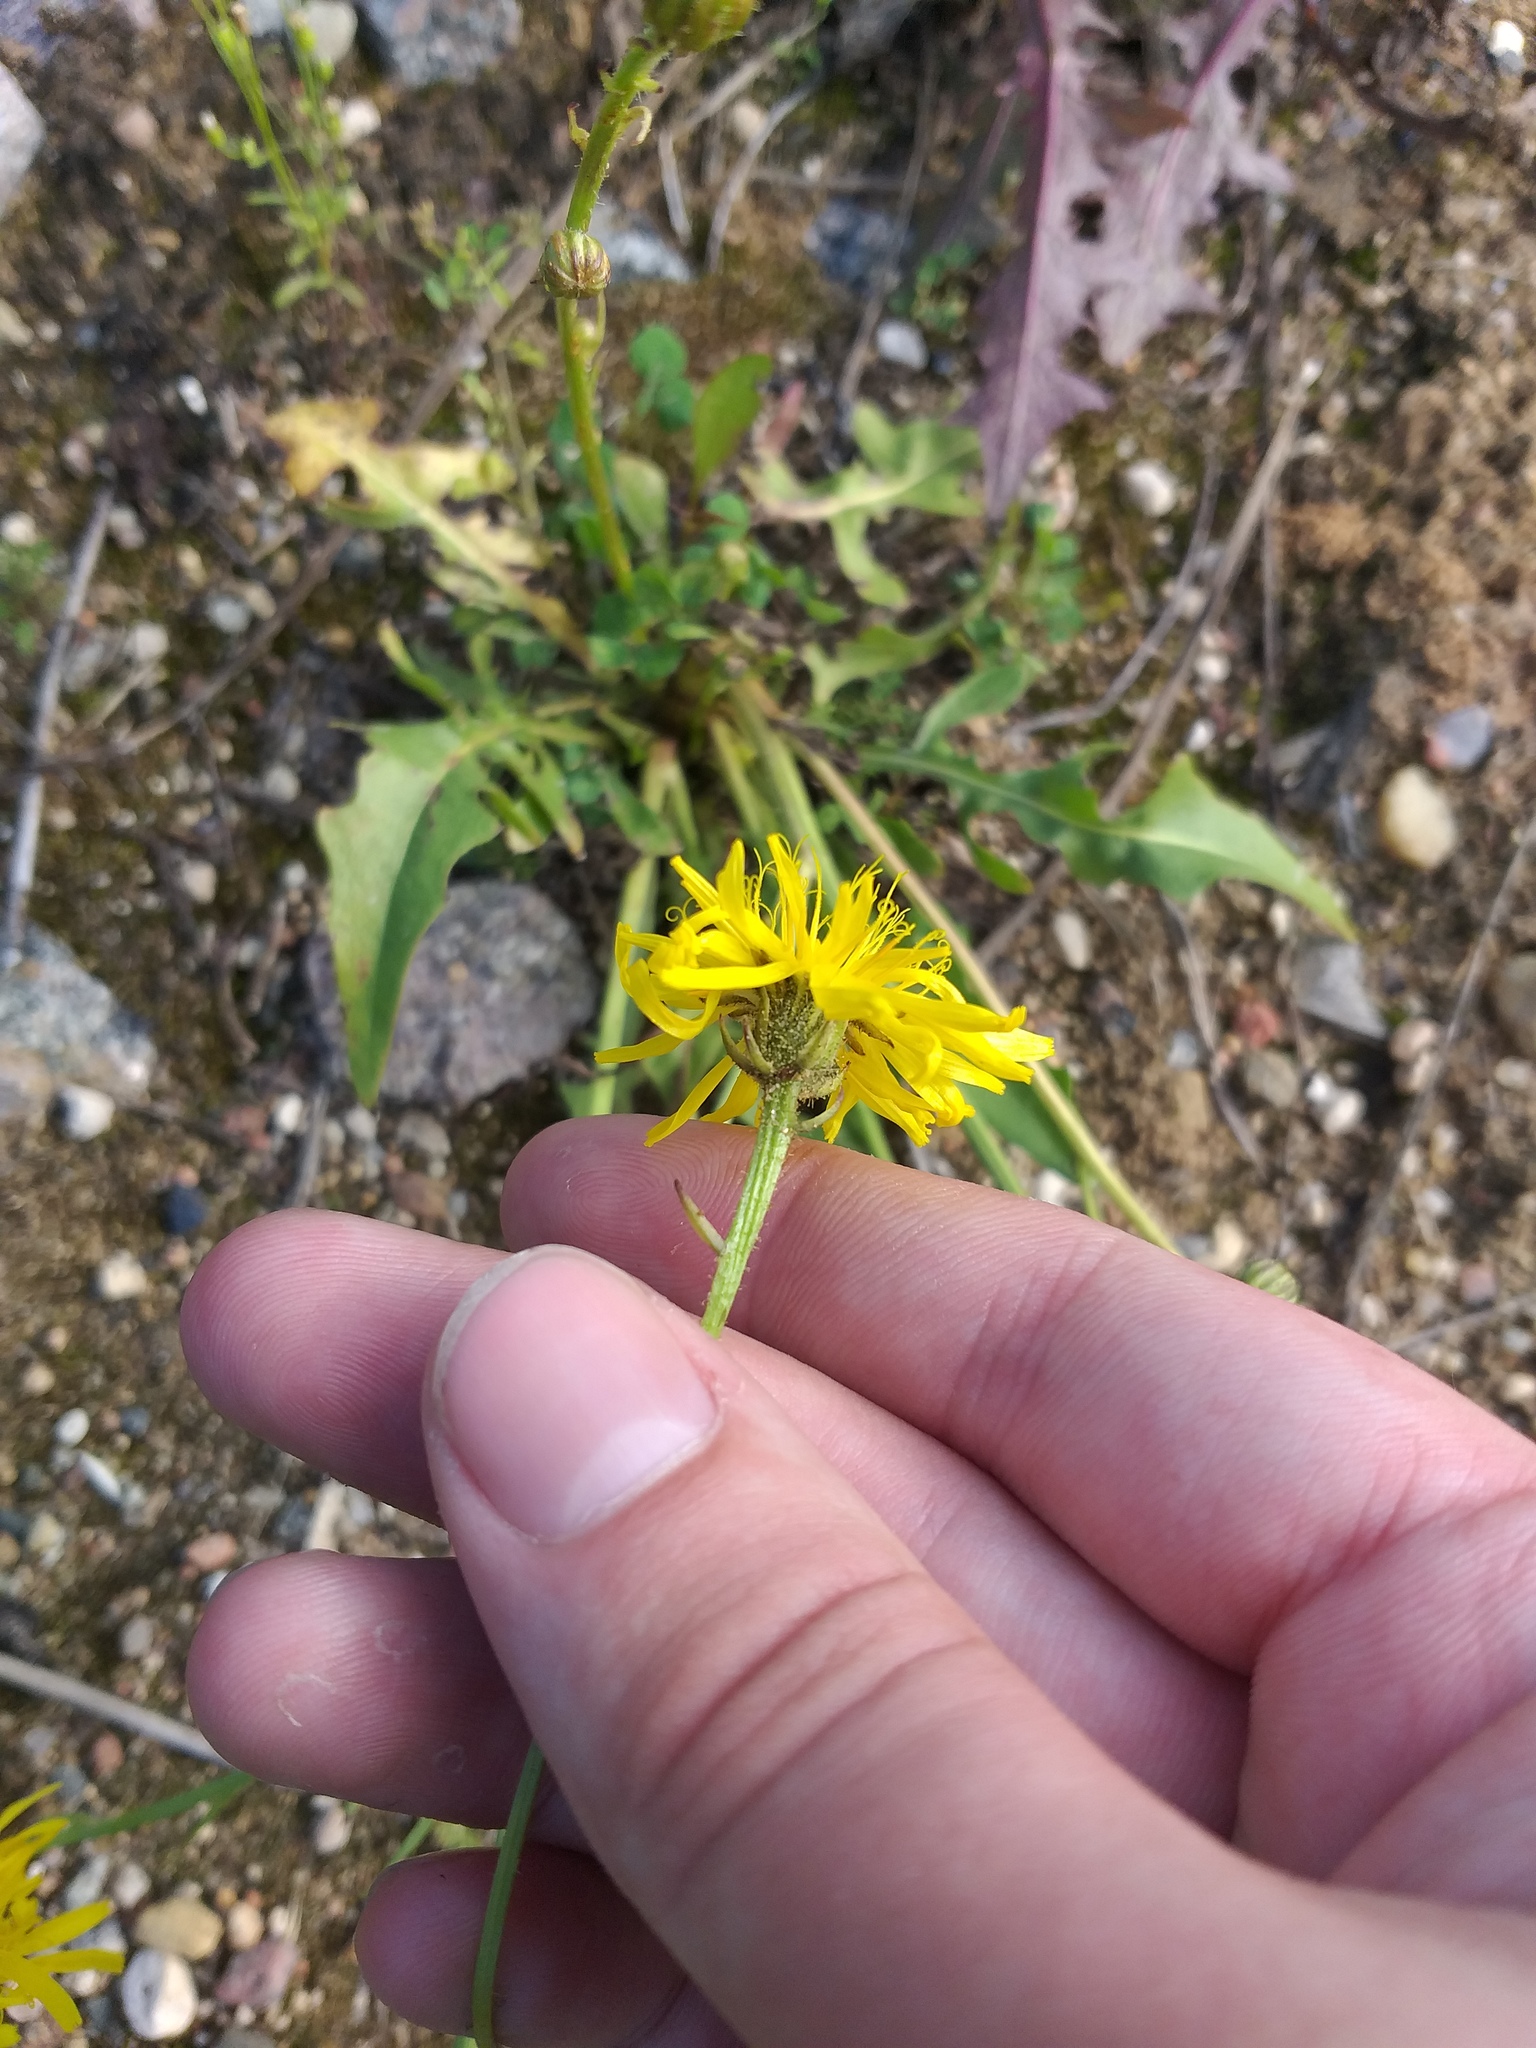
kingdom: Plantae
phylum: Tracheophyta
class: Magnoliopsida
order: Asterales
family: Asteraceae
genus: Crepis
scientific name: Crepis biennis
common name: Rough hawk's-beard
